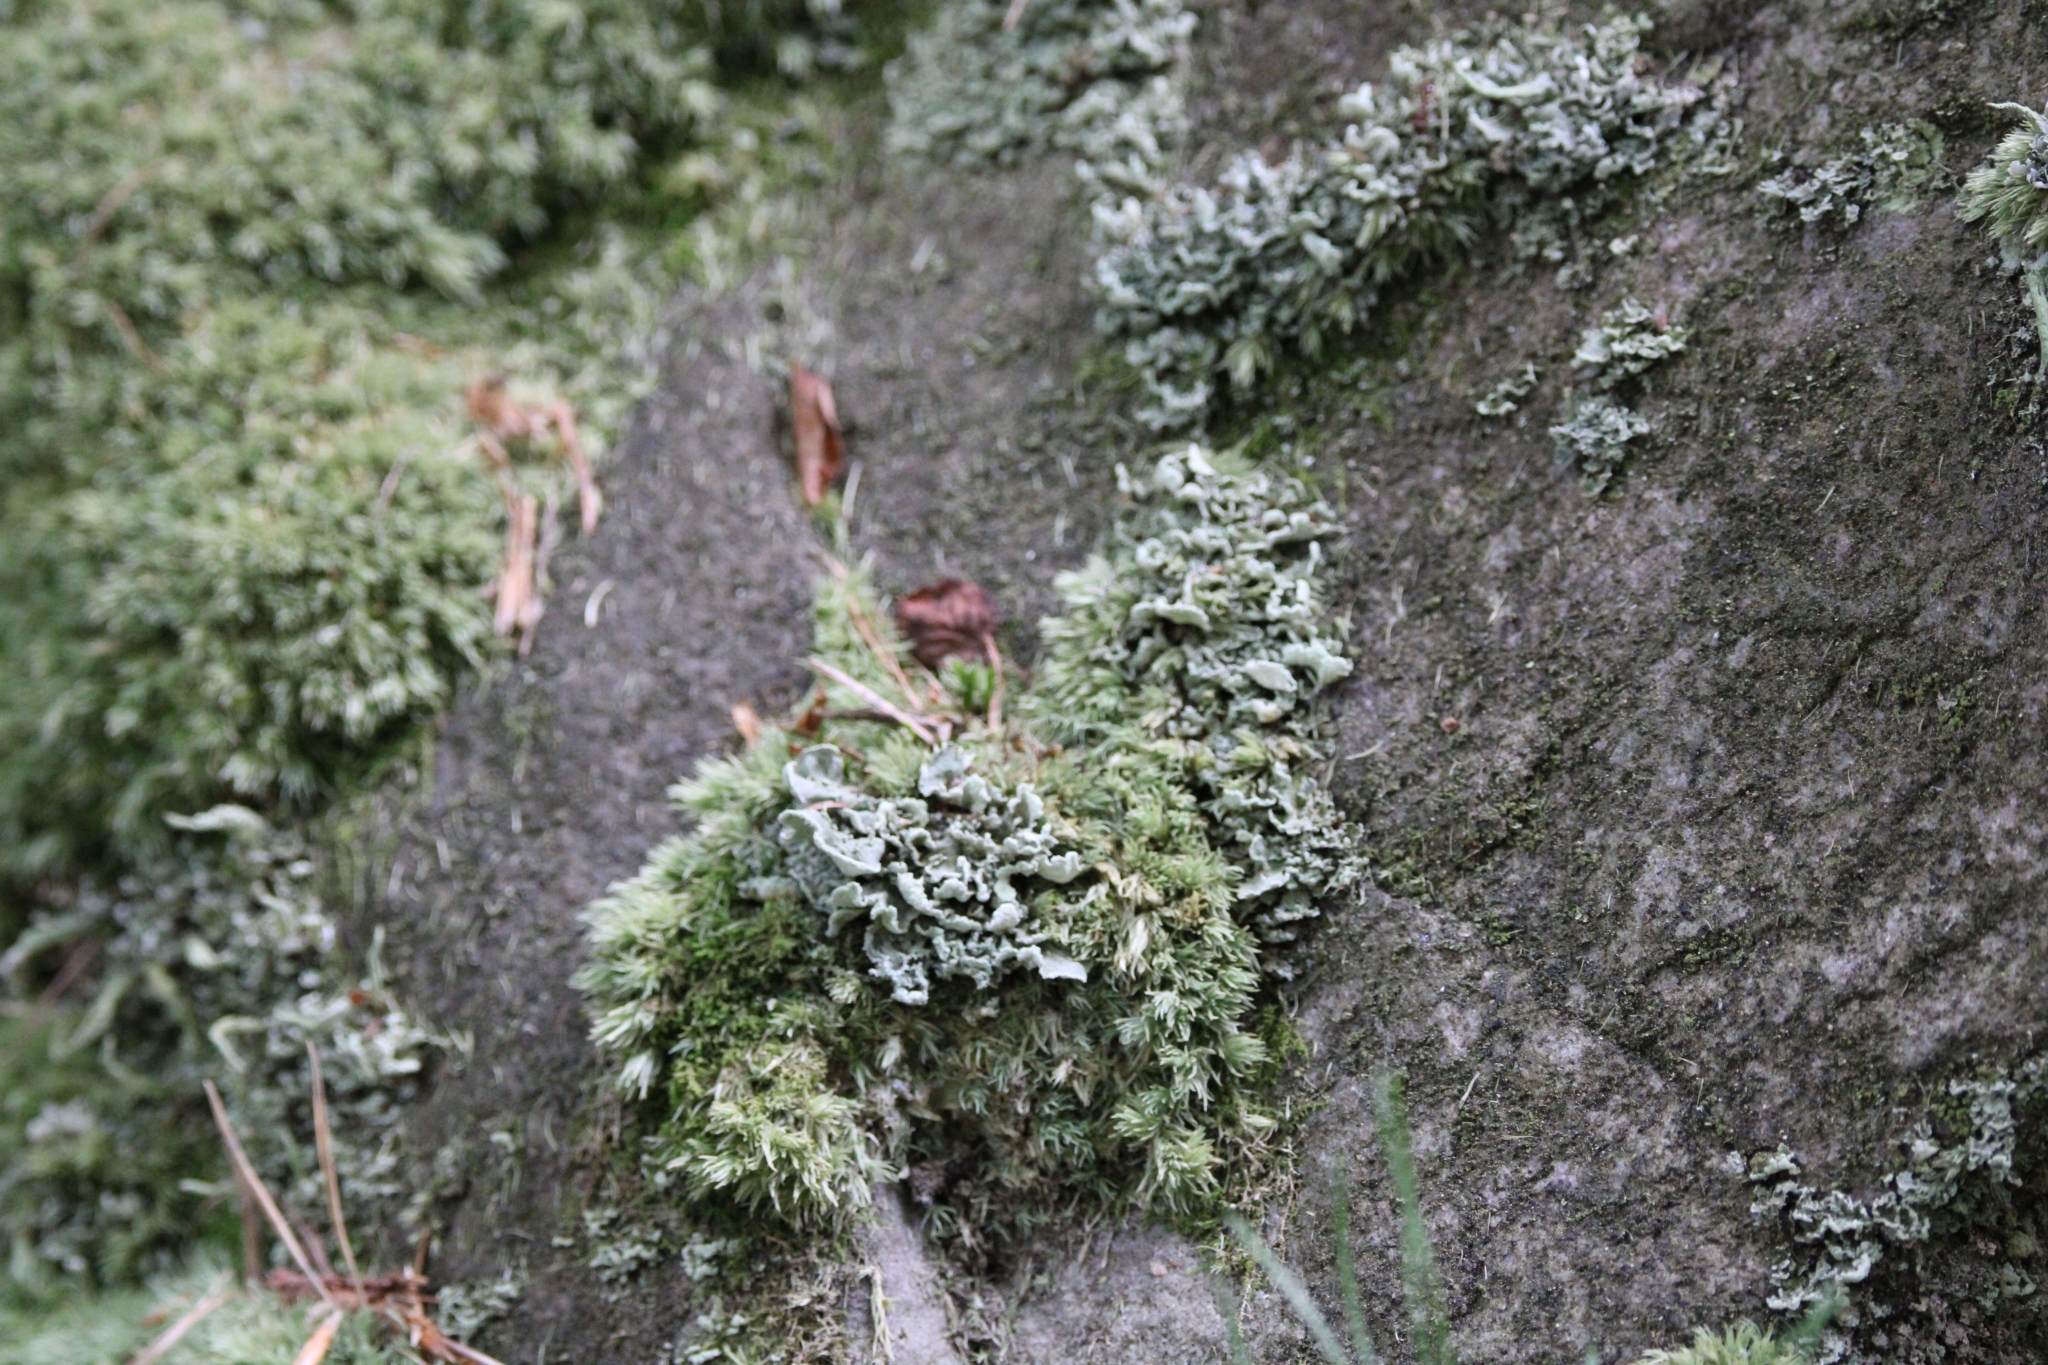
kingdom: Fungi
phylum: Ascomycota
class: Lecanoromycetes
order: Lecanorales
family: Cladoniaceae
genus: Cladonia
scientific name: Cladonia digitata
